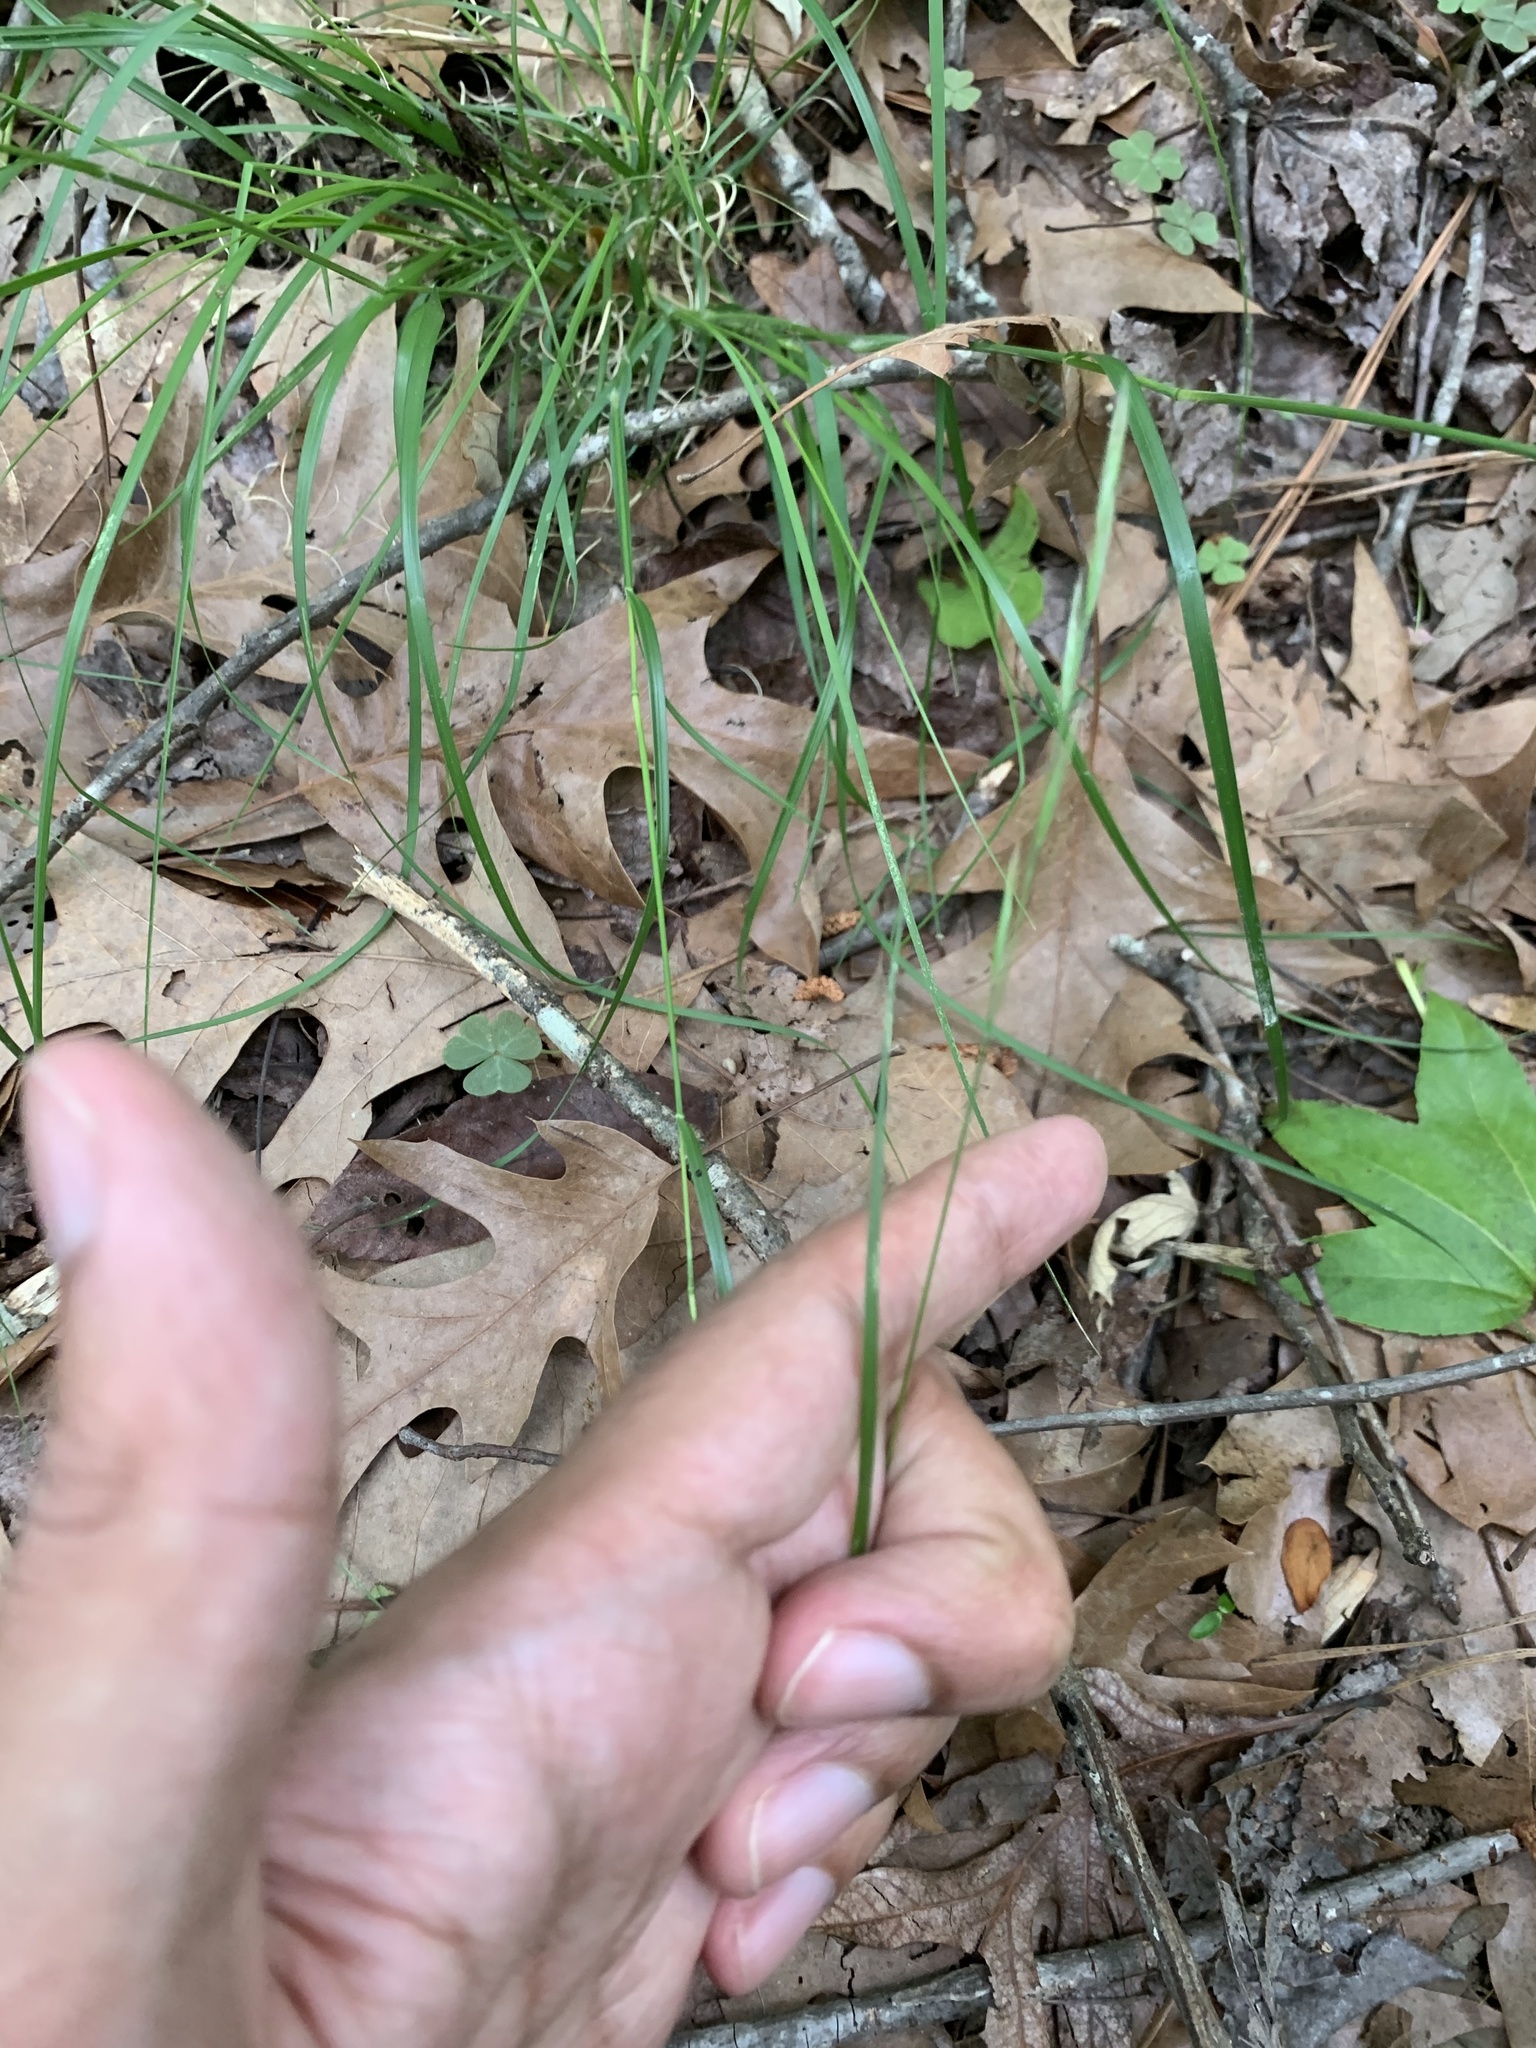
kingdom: Plantae
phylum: Tracheophyta
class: Liliopsida
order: Poales
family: Poaceae
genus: Danthonia
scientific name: Danthonia spicata
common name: Common wild oatgrass
